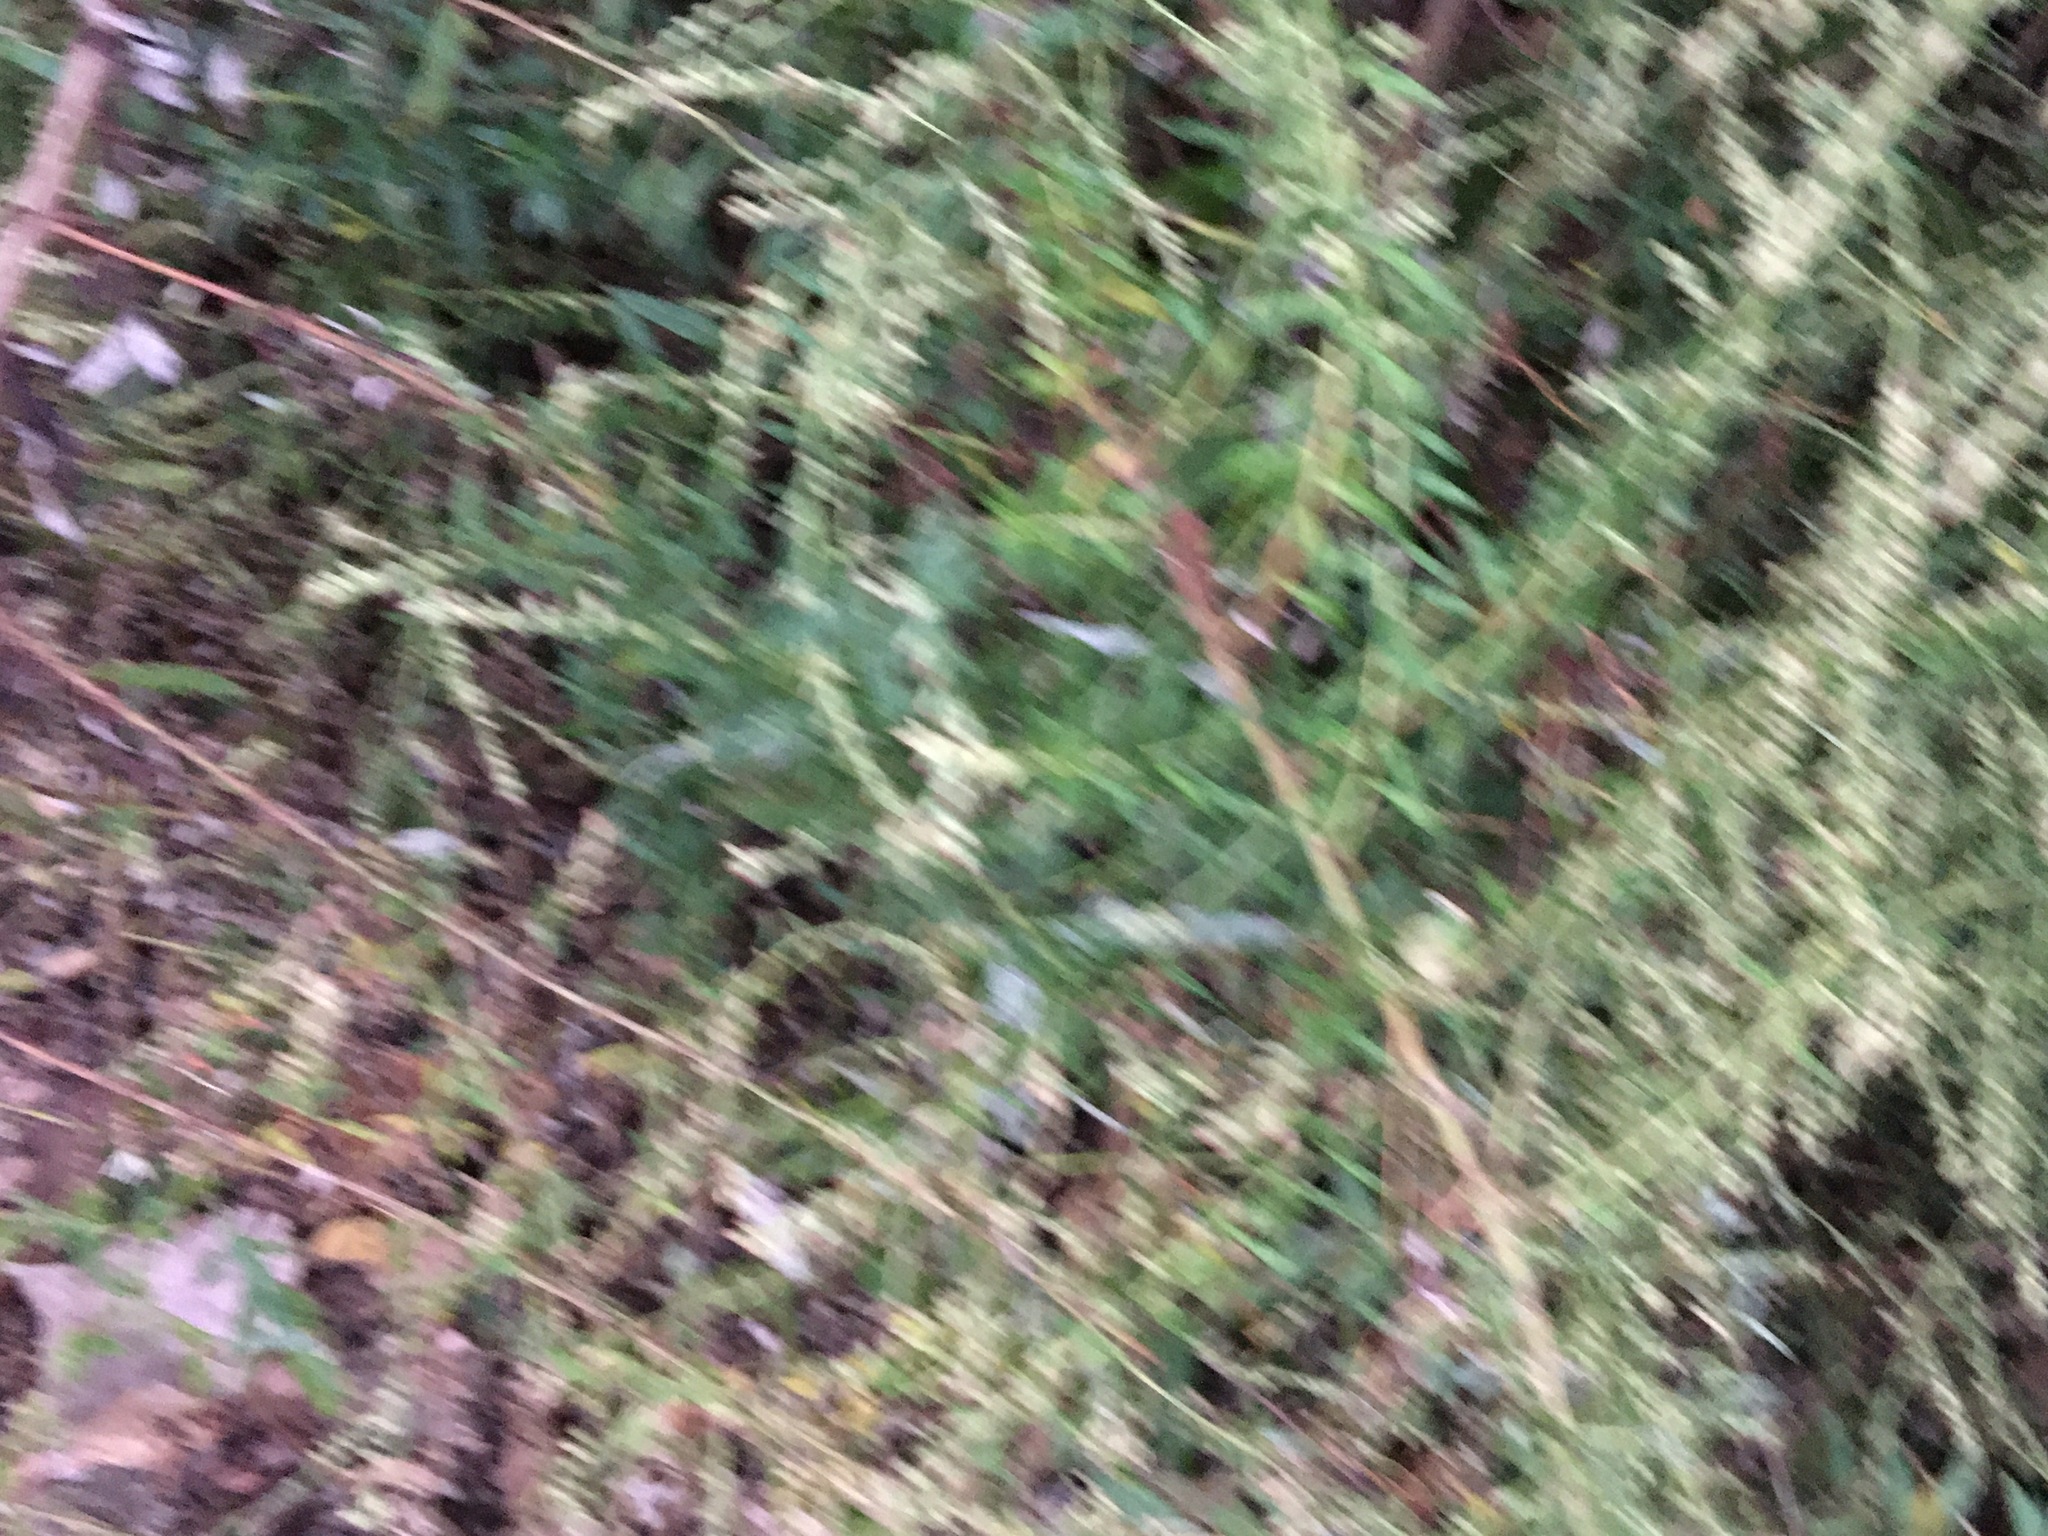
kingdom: Plantae
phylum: Tracheophyta
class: Magnoliopsida
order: Asterales
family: Asteraceae
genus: Artemisia
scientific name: Artemisia vulgaris
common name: Mugwort
